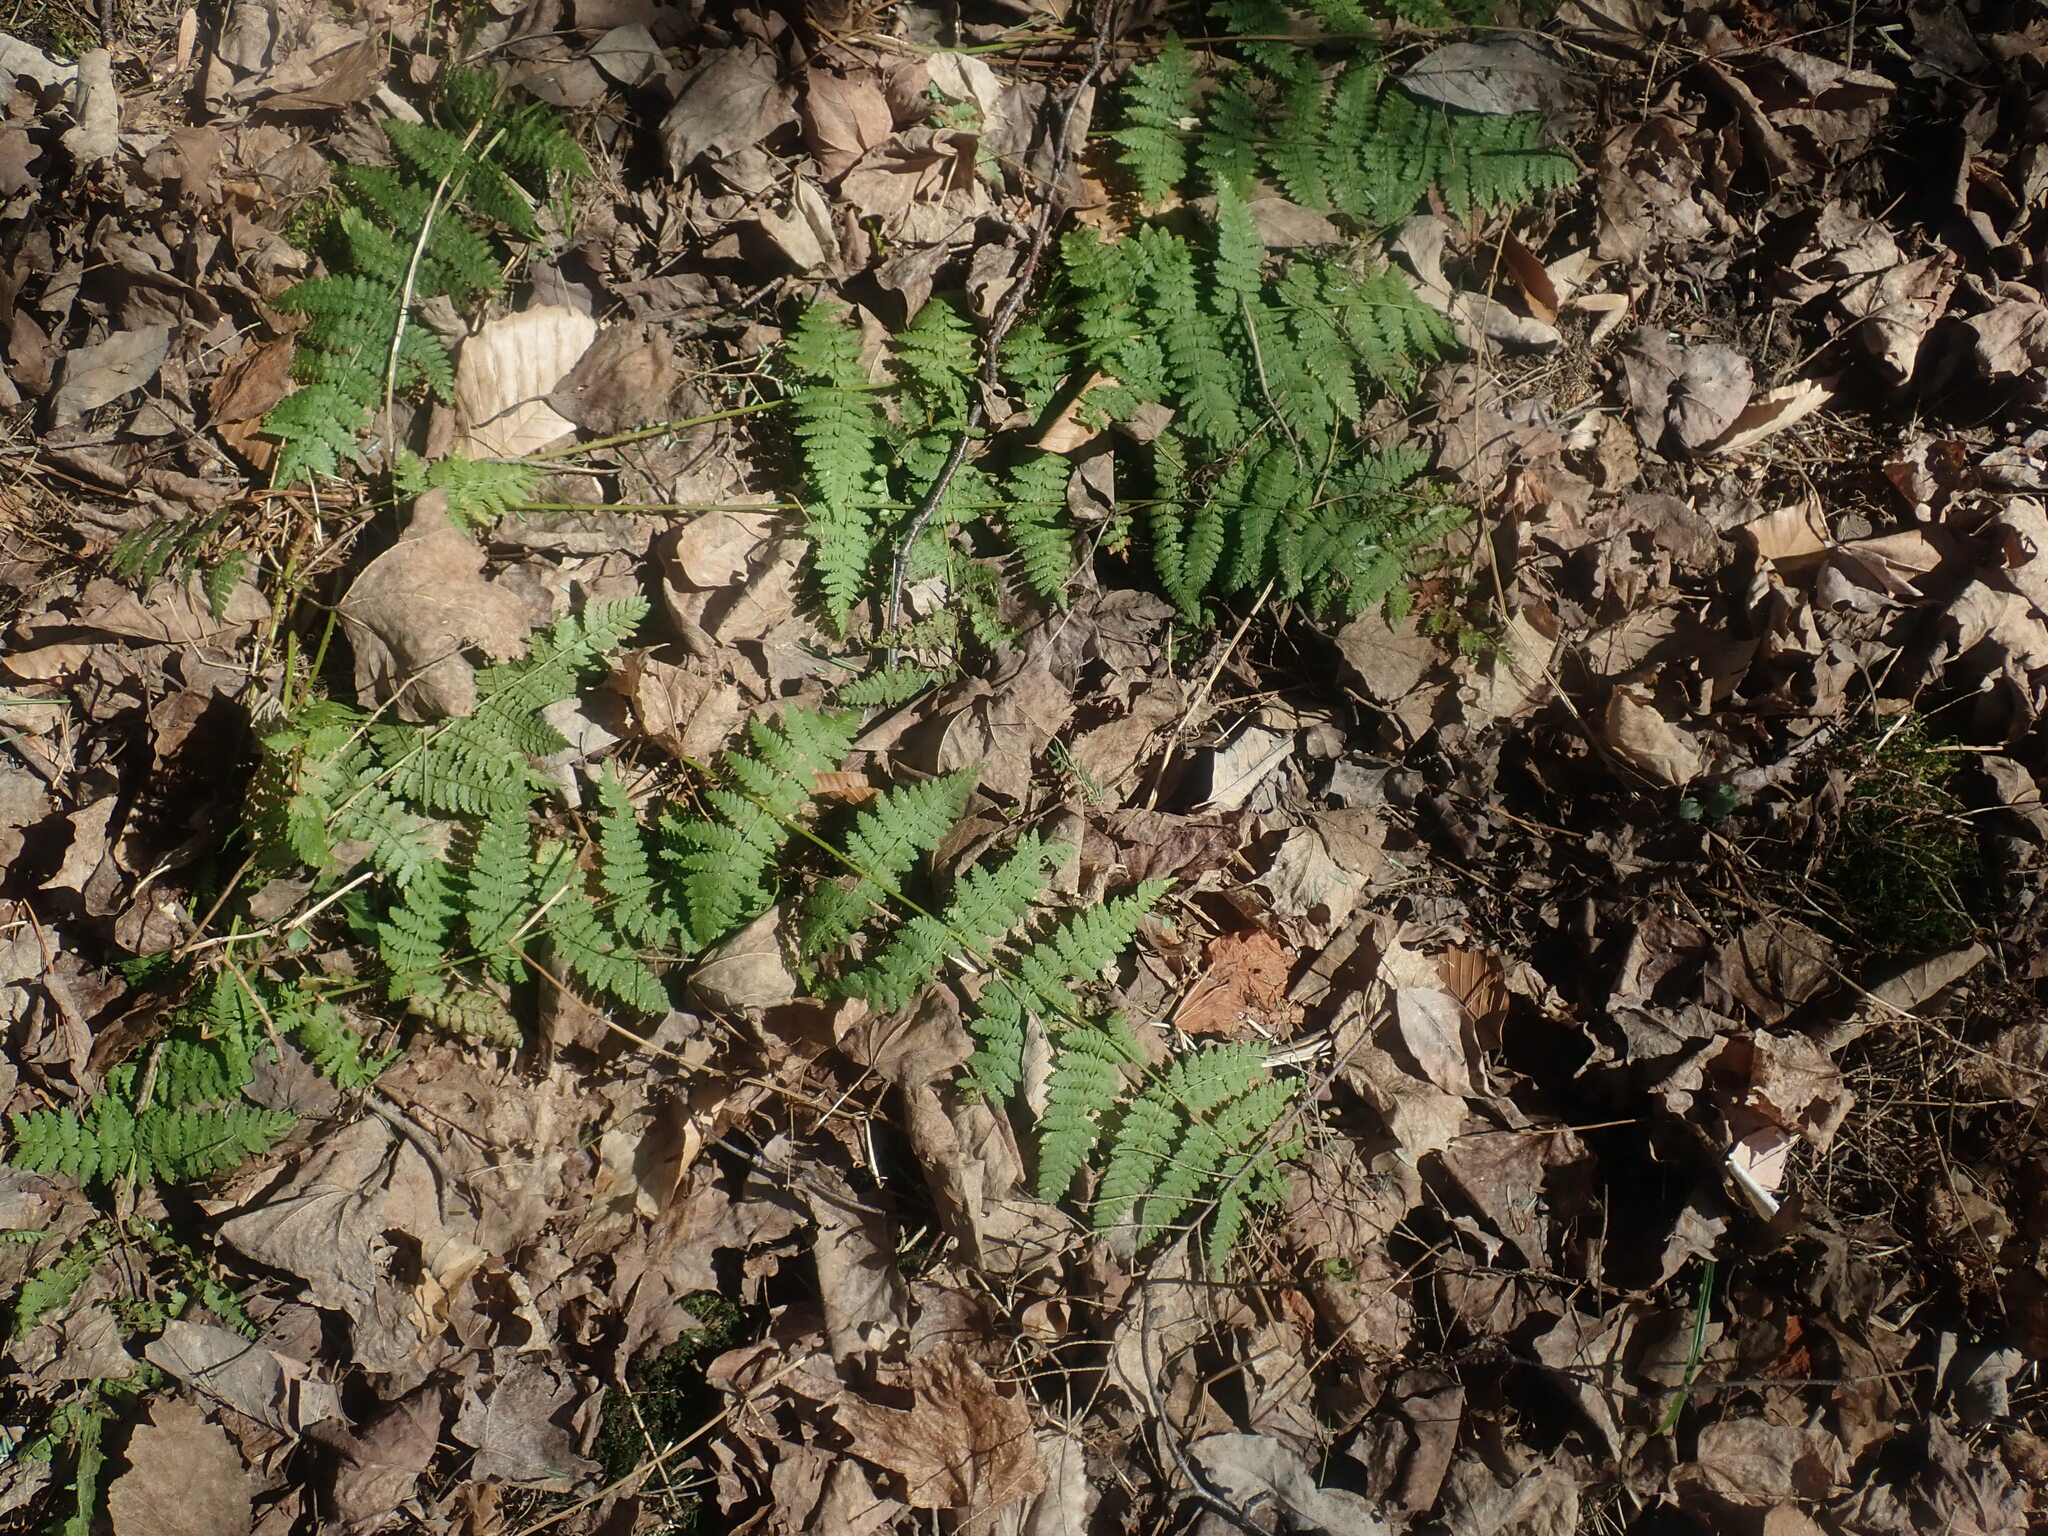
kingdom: Plantae
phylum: Tracheophyta
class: Polypodiopsida
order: Polypodiales
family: Dryopteridaceae
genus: Dryopteris
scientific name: Dryopteris intermedia
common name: Evergreen wood fern
